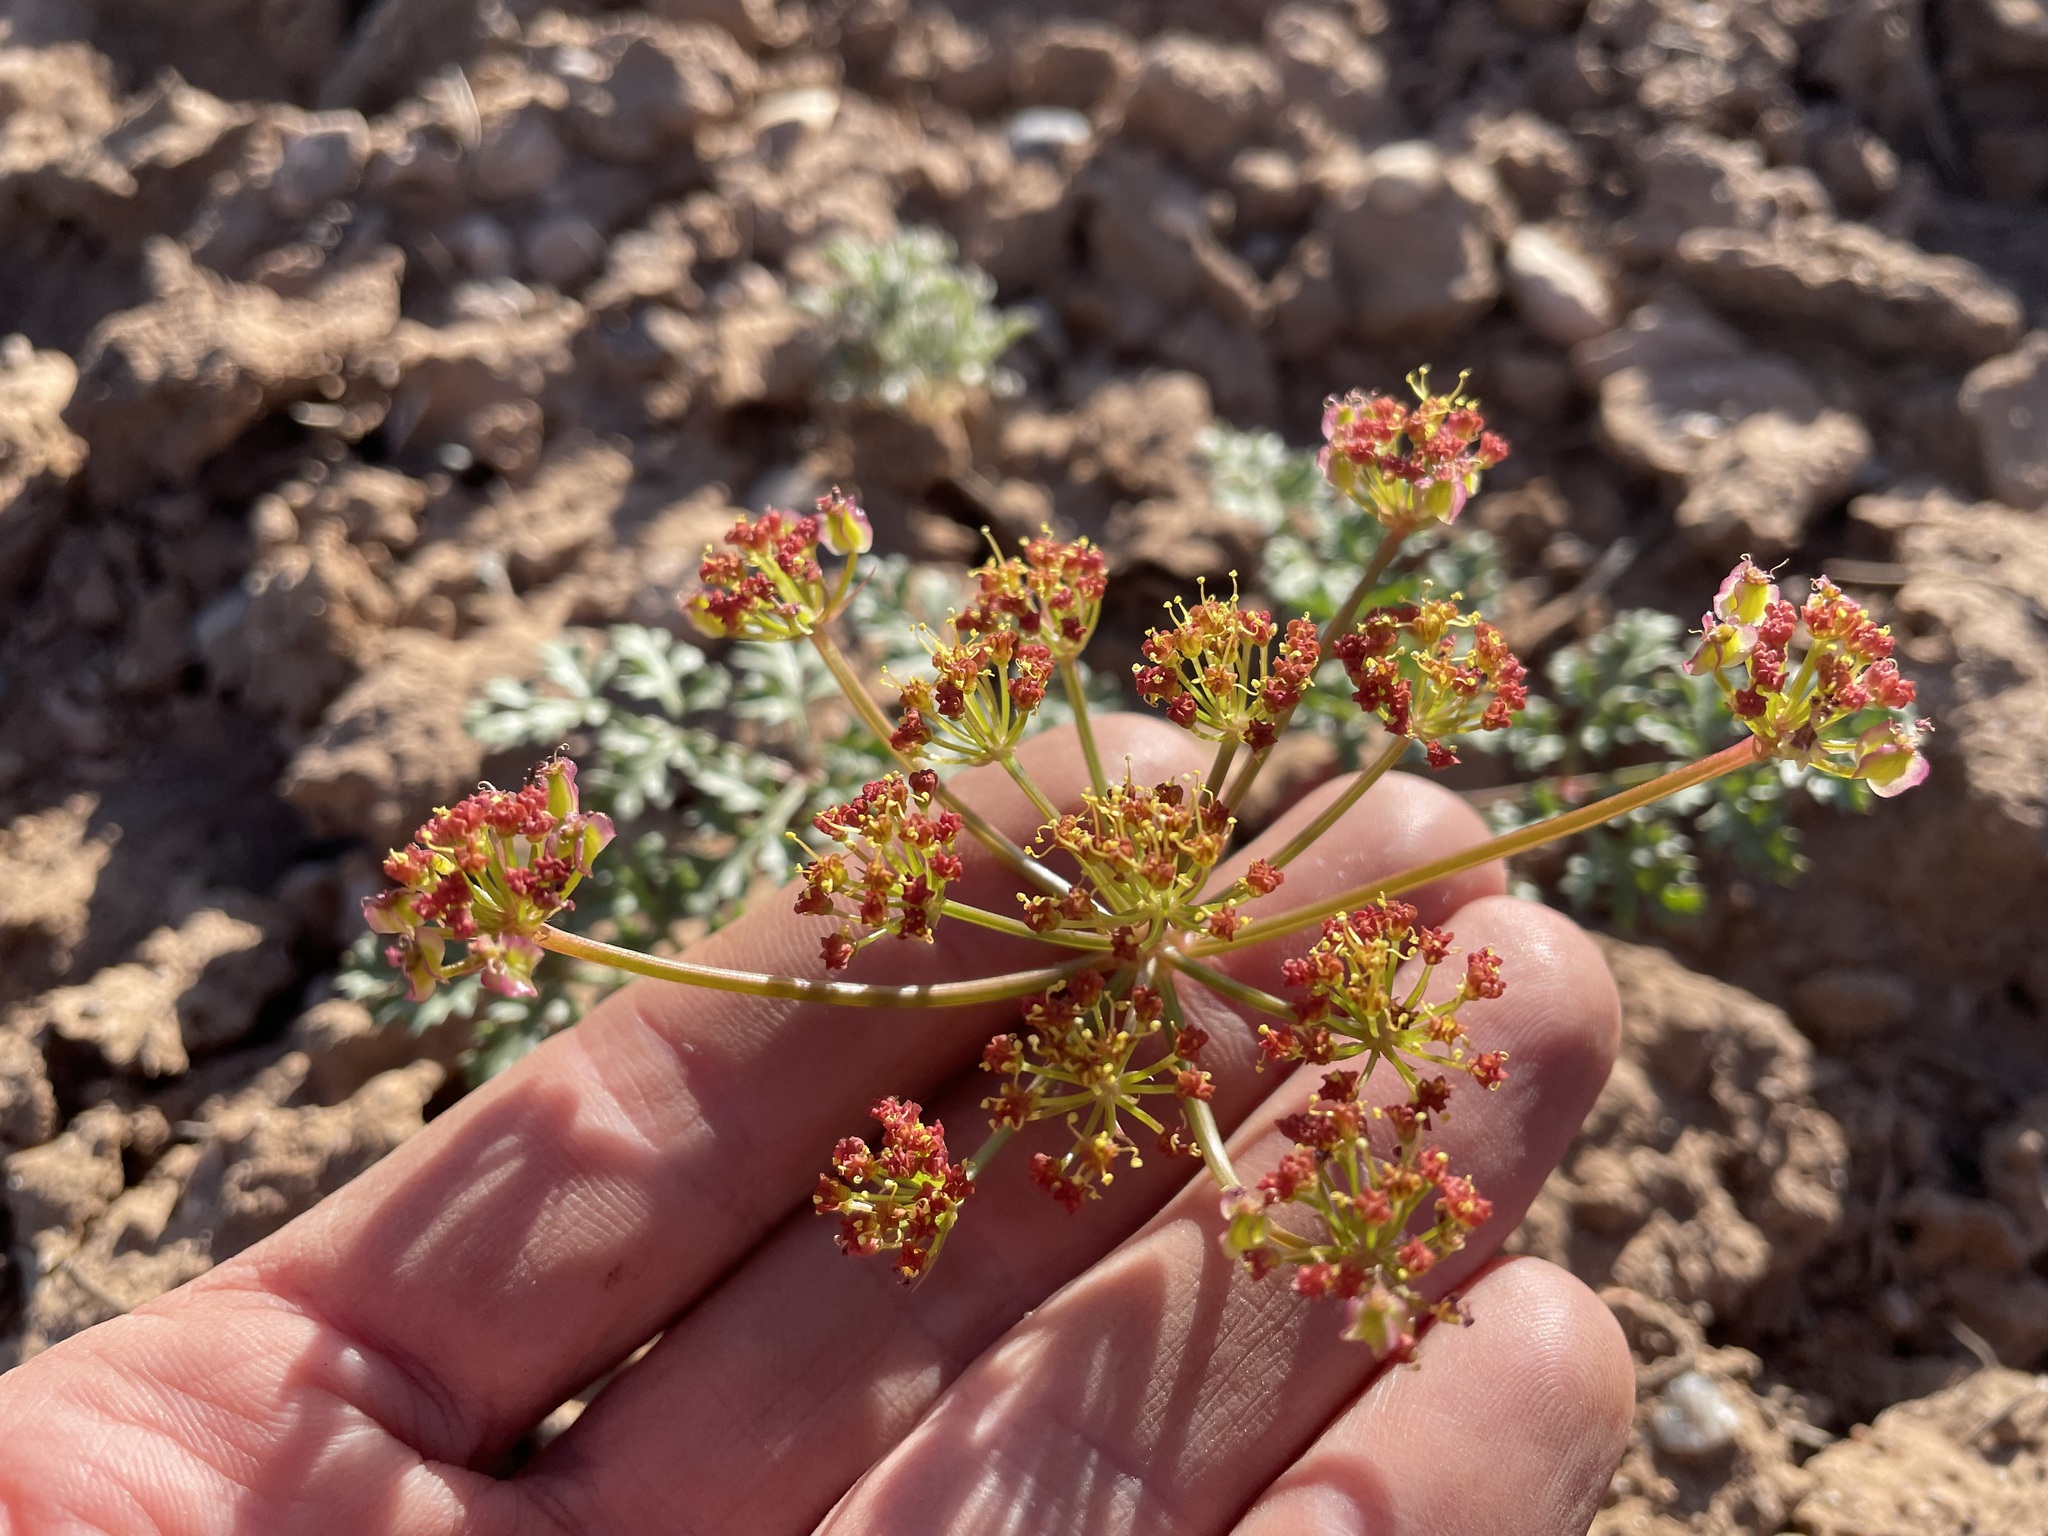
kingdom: Plantae
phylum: Tracheophyta
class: Magnoliopsida
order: Apiales
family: Apiaceae
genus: Aulospermum
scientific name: Aulospermum purpureum
